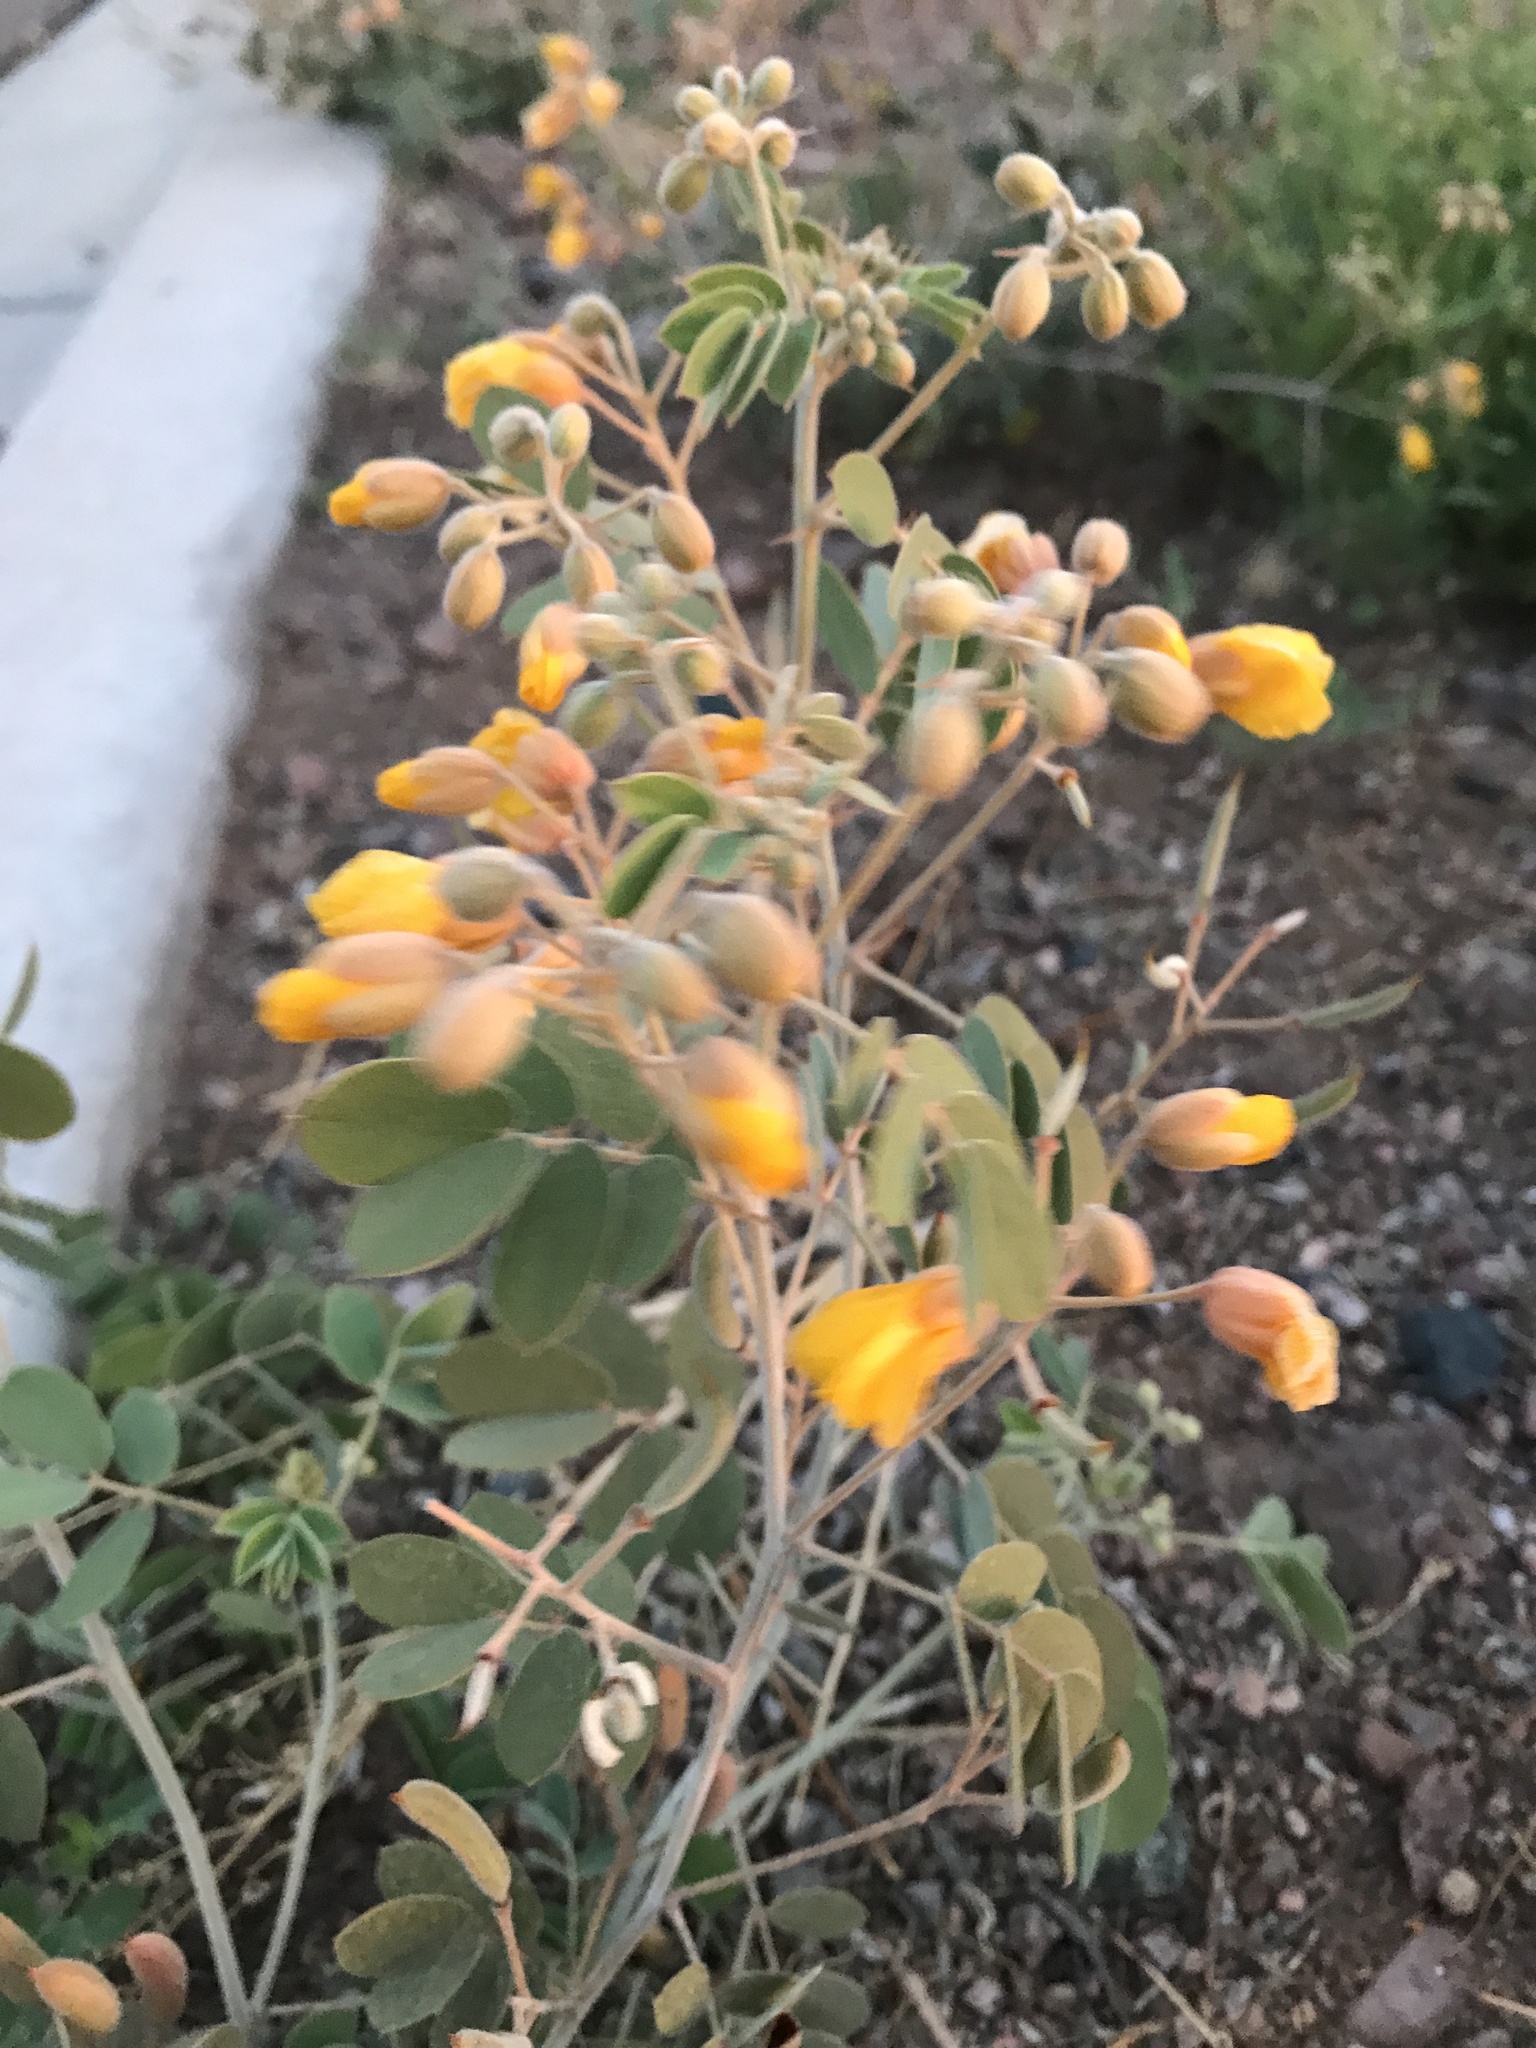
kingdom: Plantae
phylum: Tracheophyta
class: Magnoliopsida
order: Fabales
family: Fabaceae
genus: Senna
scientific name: Senna covesii
